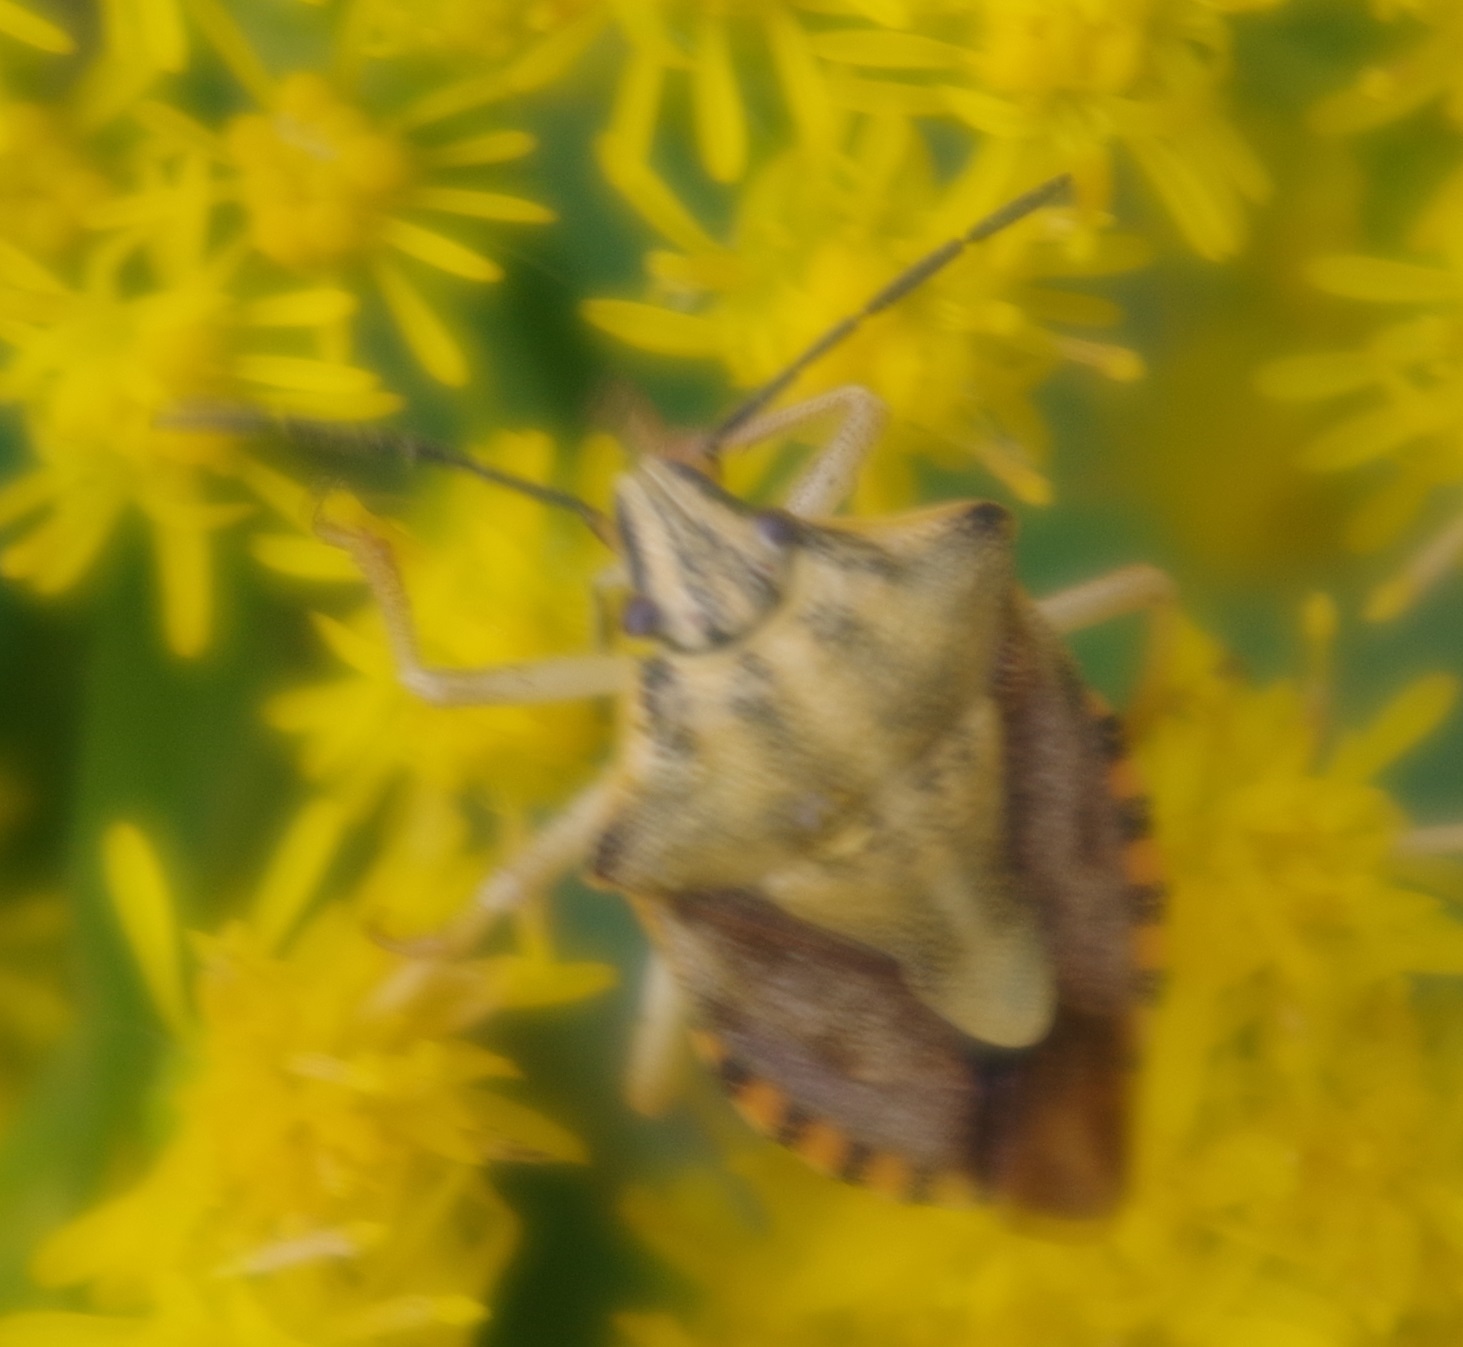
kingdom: Animalia
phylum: Arthropoda
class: Insecta
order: Hemiptera
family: Pentatomidae
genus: Carpocoris
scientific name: Carpocoris purpureipennis
